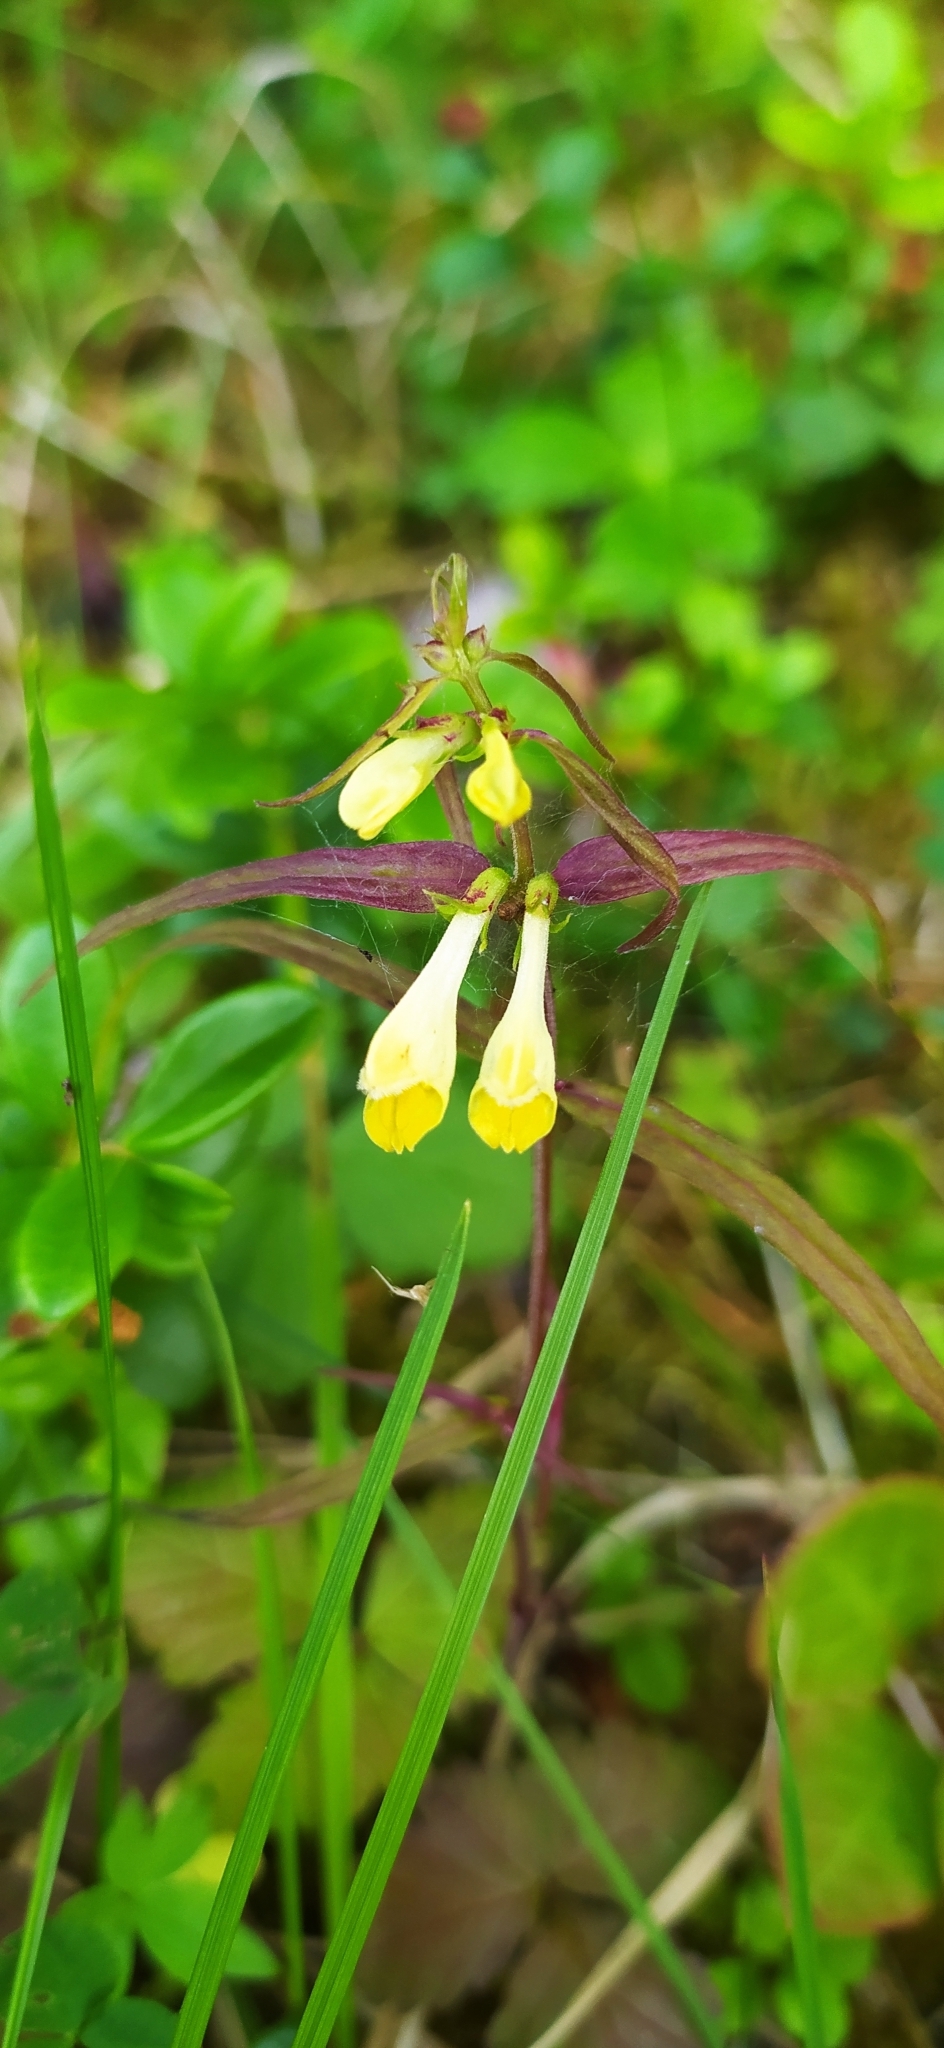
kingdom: Plantae
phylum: Tracheophyta
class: Magnoliopsida
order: Lamiales
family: Orobanchaceae
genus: Melampyrum
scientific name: Melampyrum pratense
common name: Common cow-wheat
